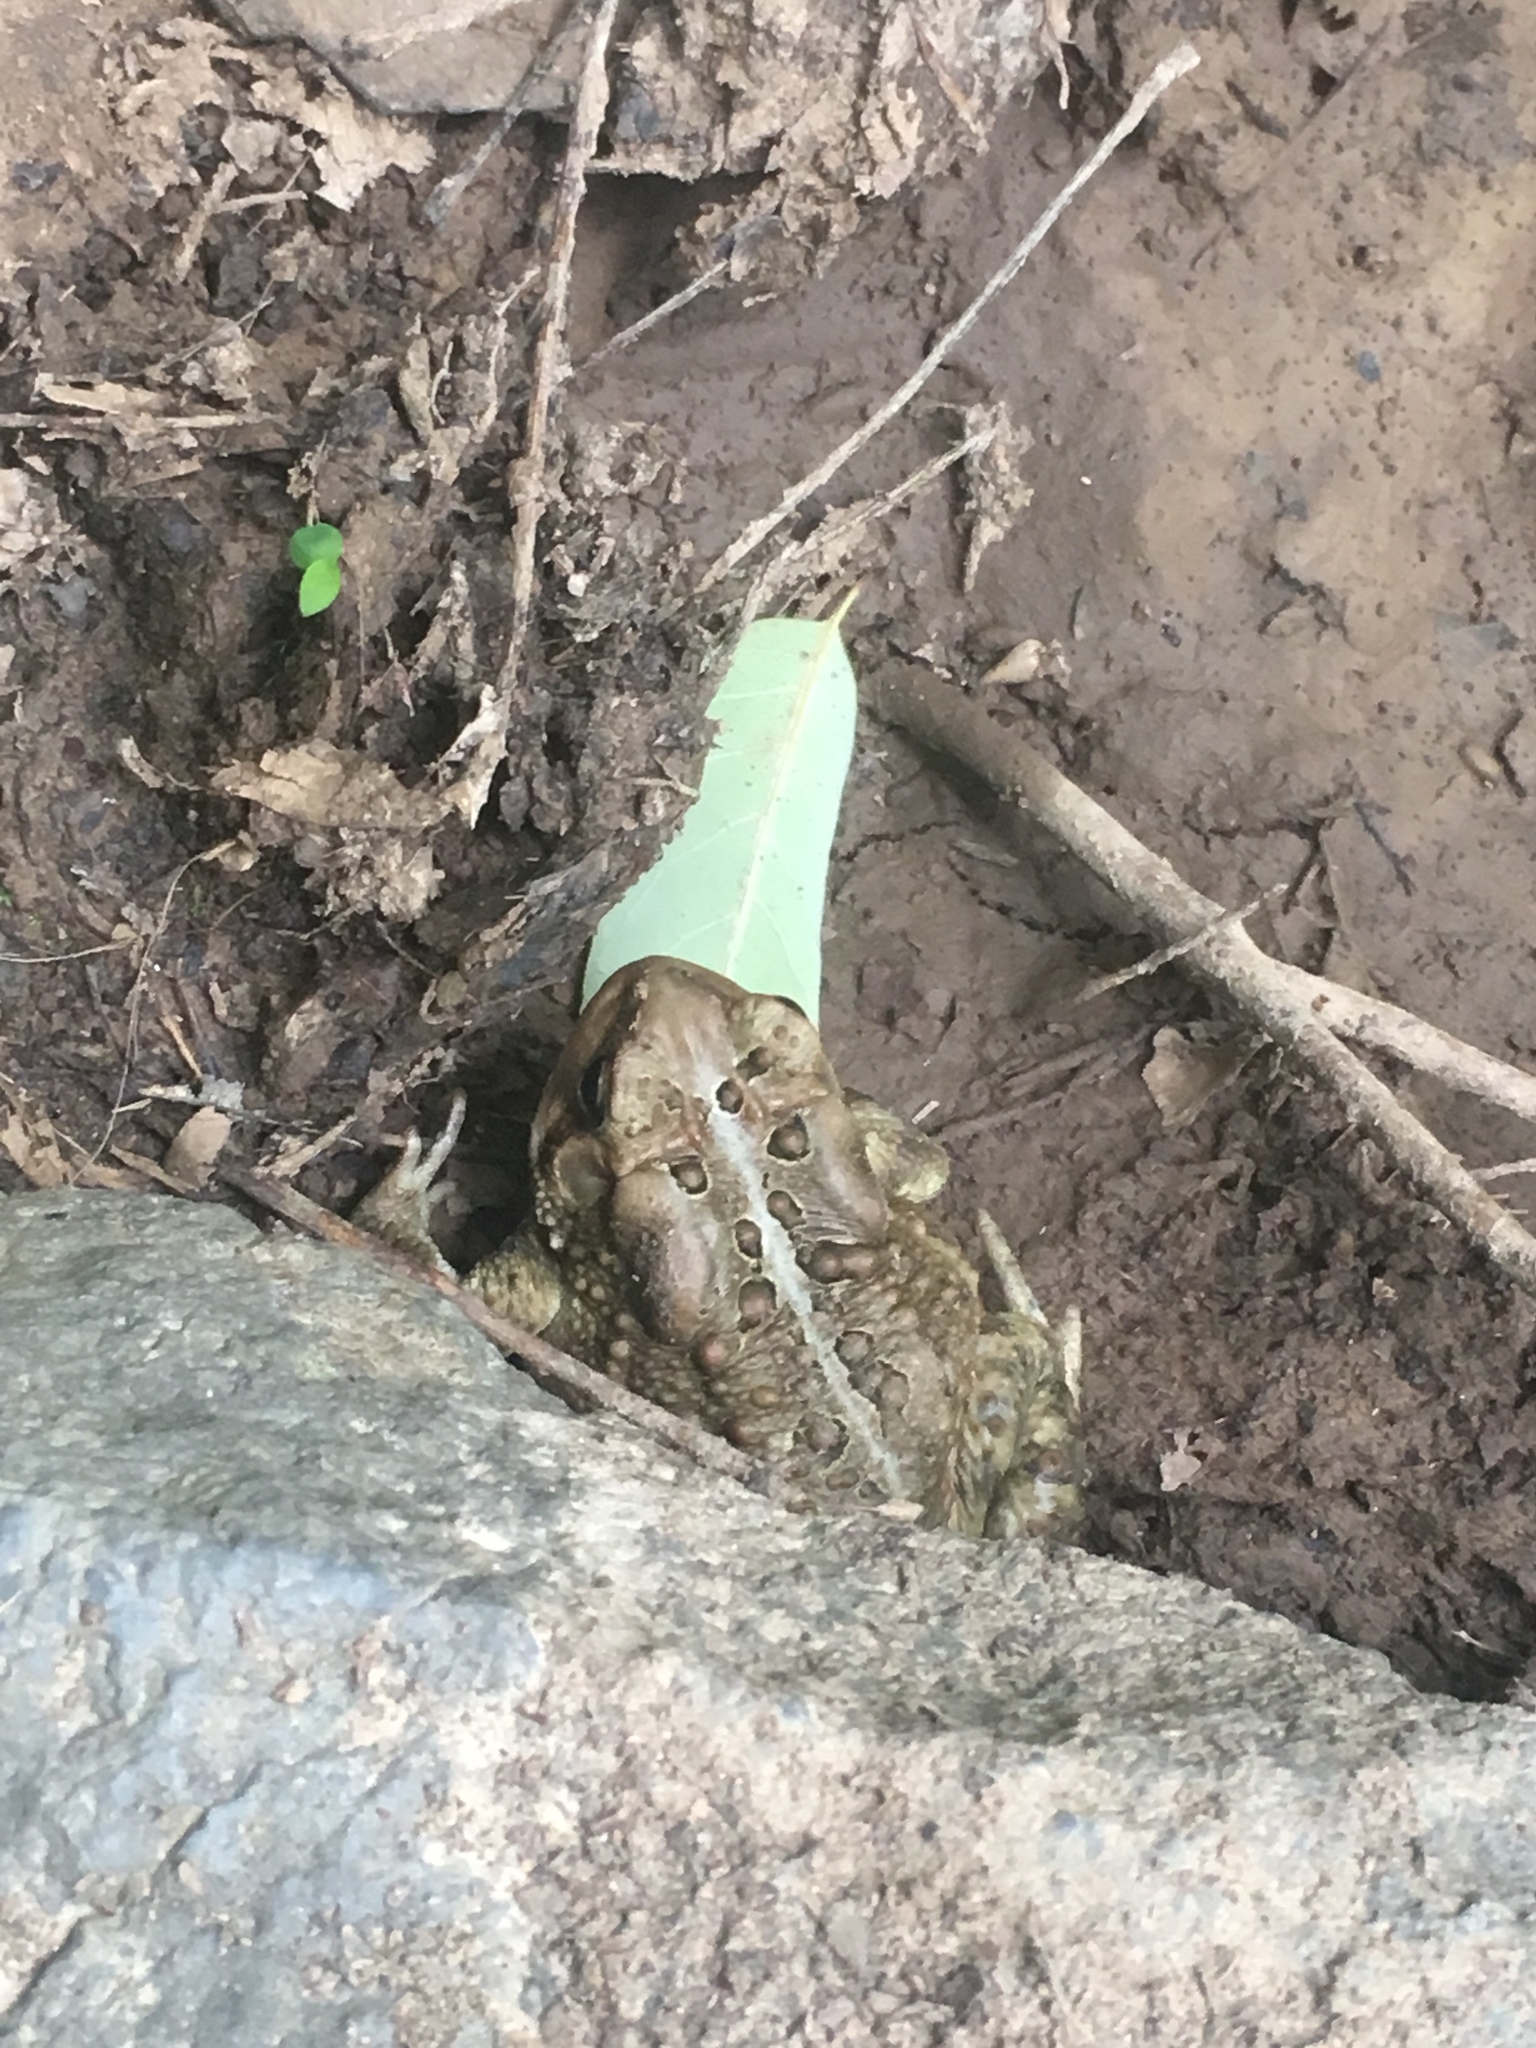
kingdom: Animalia
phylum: Chordata
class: Amphibia
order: Anura
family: Bufonidae
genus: Anaxyrus
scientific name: Anaxyrus americanus
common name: American toad
